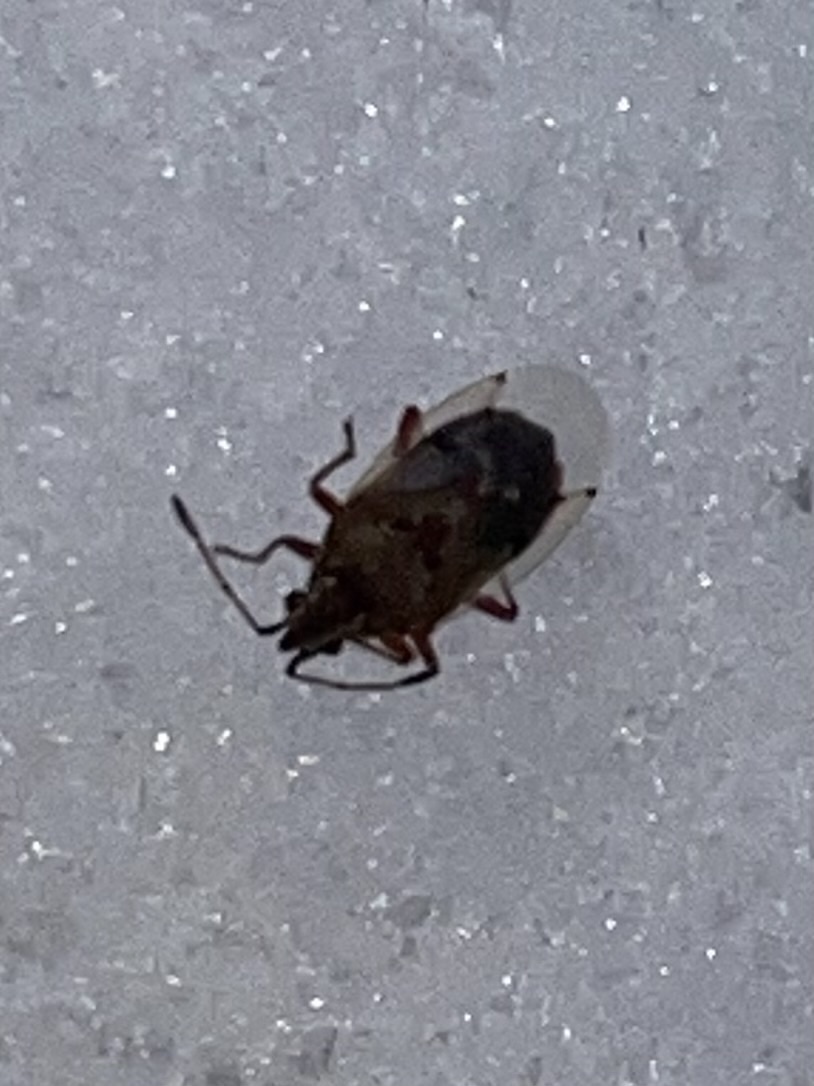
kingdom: Animalia
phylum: Arthropoda
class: Insecta
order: Hemiptera
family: Lygaeidae
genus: Kleidocerys
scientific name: Kleidocerys resedae
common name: Birch catkin bug
